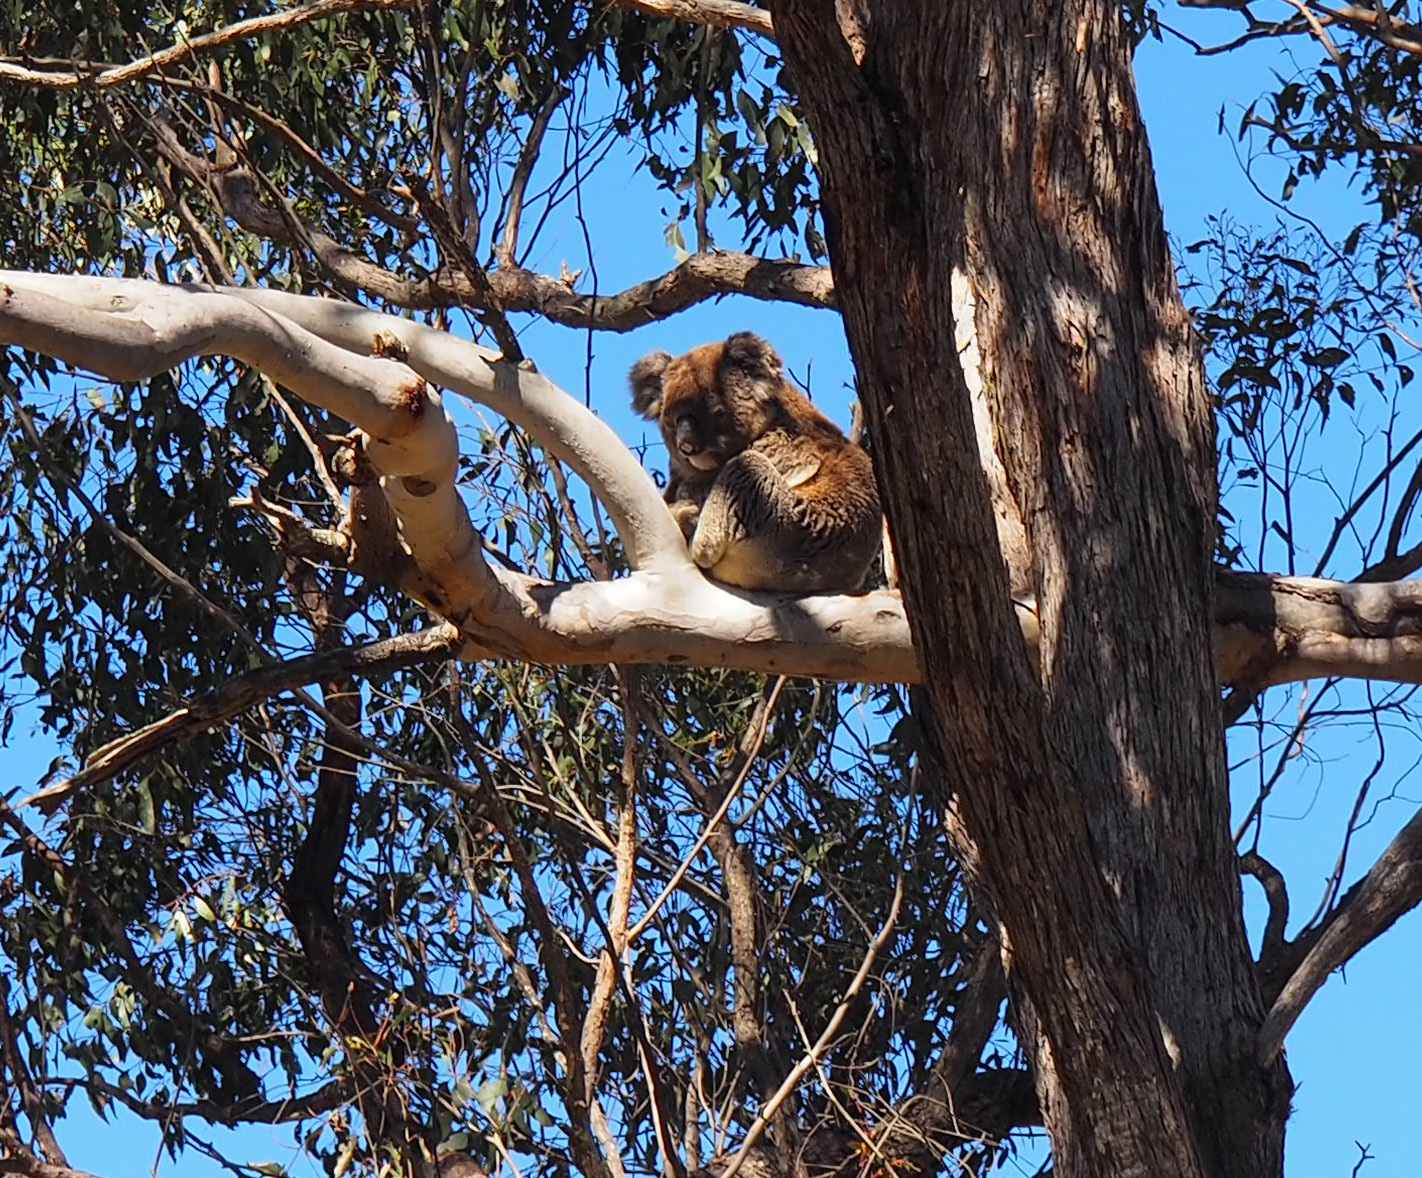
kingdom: Animalia
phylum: Chordata
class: Mammalia
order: Diprotodontia
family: Phascolarctidae
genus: Phascolarctos
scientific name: Phascolarctos cinereus
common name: Koala
